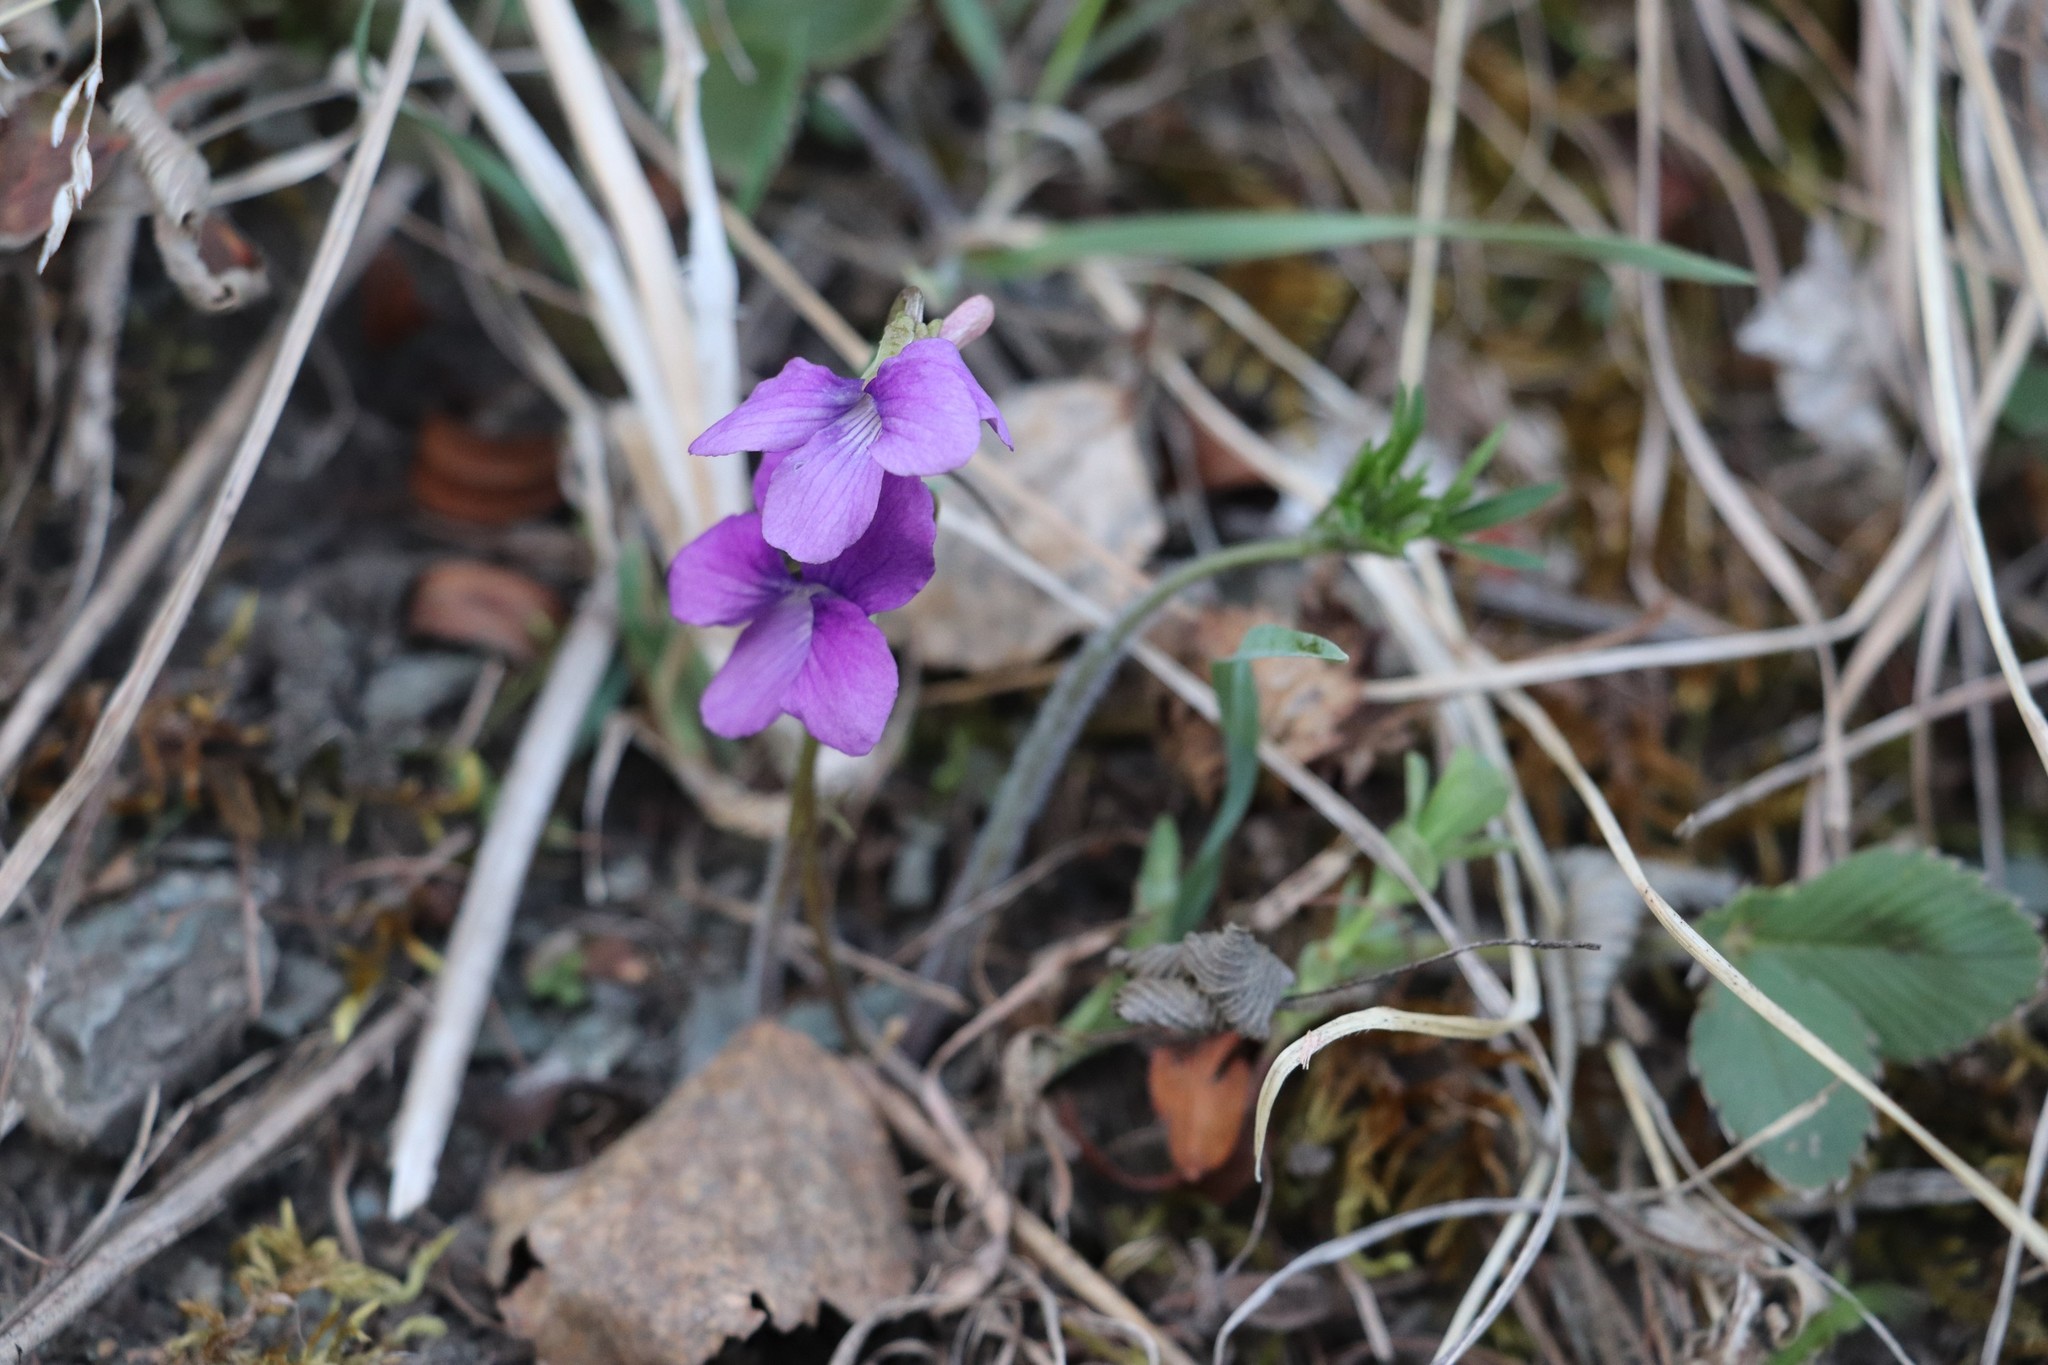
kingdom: Plantae
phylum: Tracheophyta
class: Magnoliopsida
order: Malpighiales
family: Violaceae
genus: Viola
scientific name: Viola multifida
